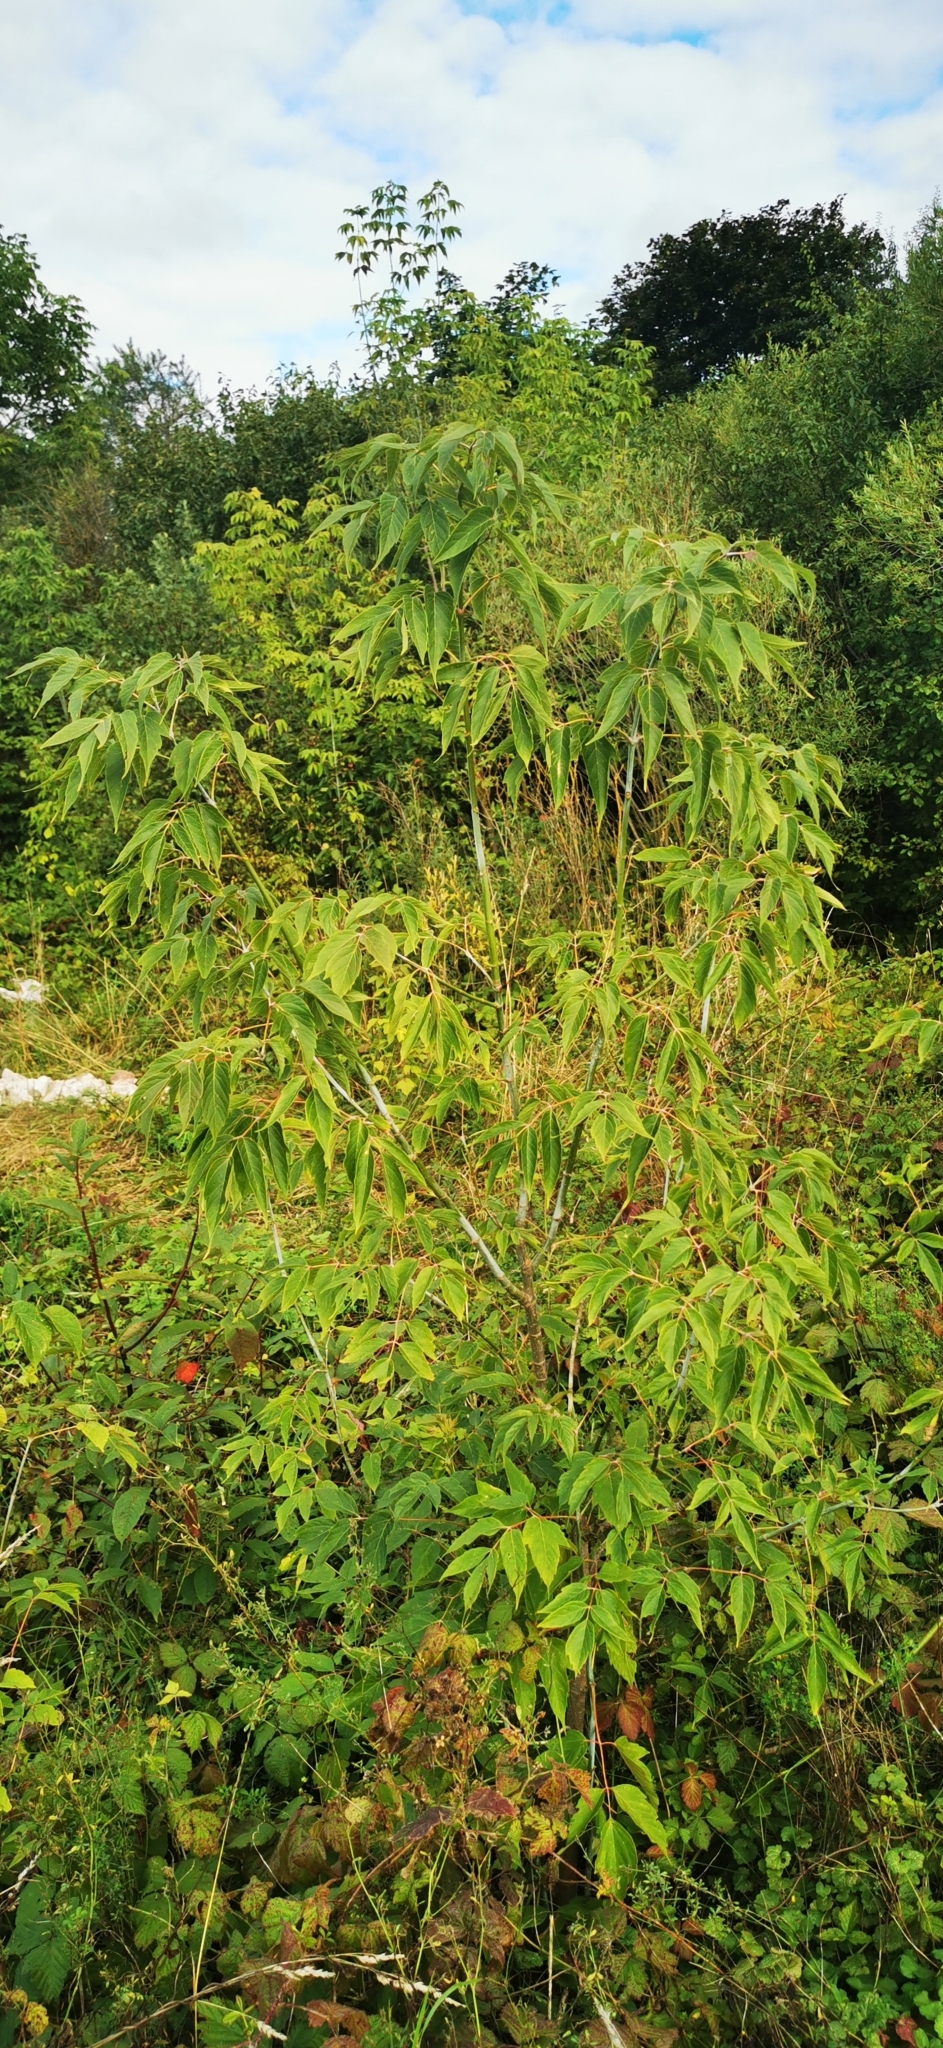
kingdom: Plantae
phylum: Tracheophyta
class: Magnoliopsida
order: Sapindales
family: Sapindaceae
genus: Acer
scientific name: Acer negundo
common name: Ashleaf maple
